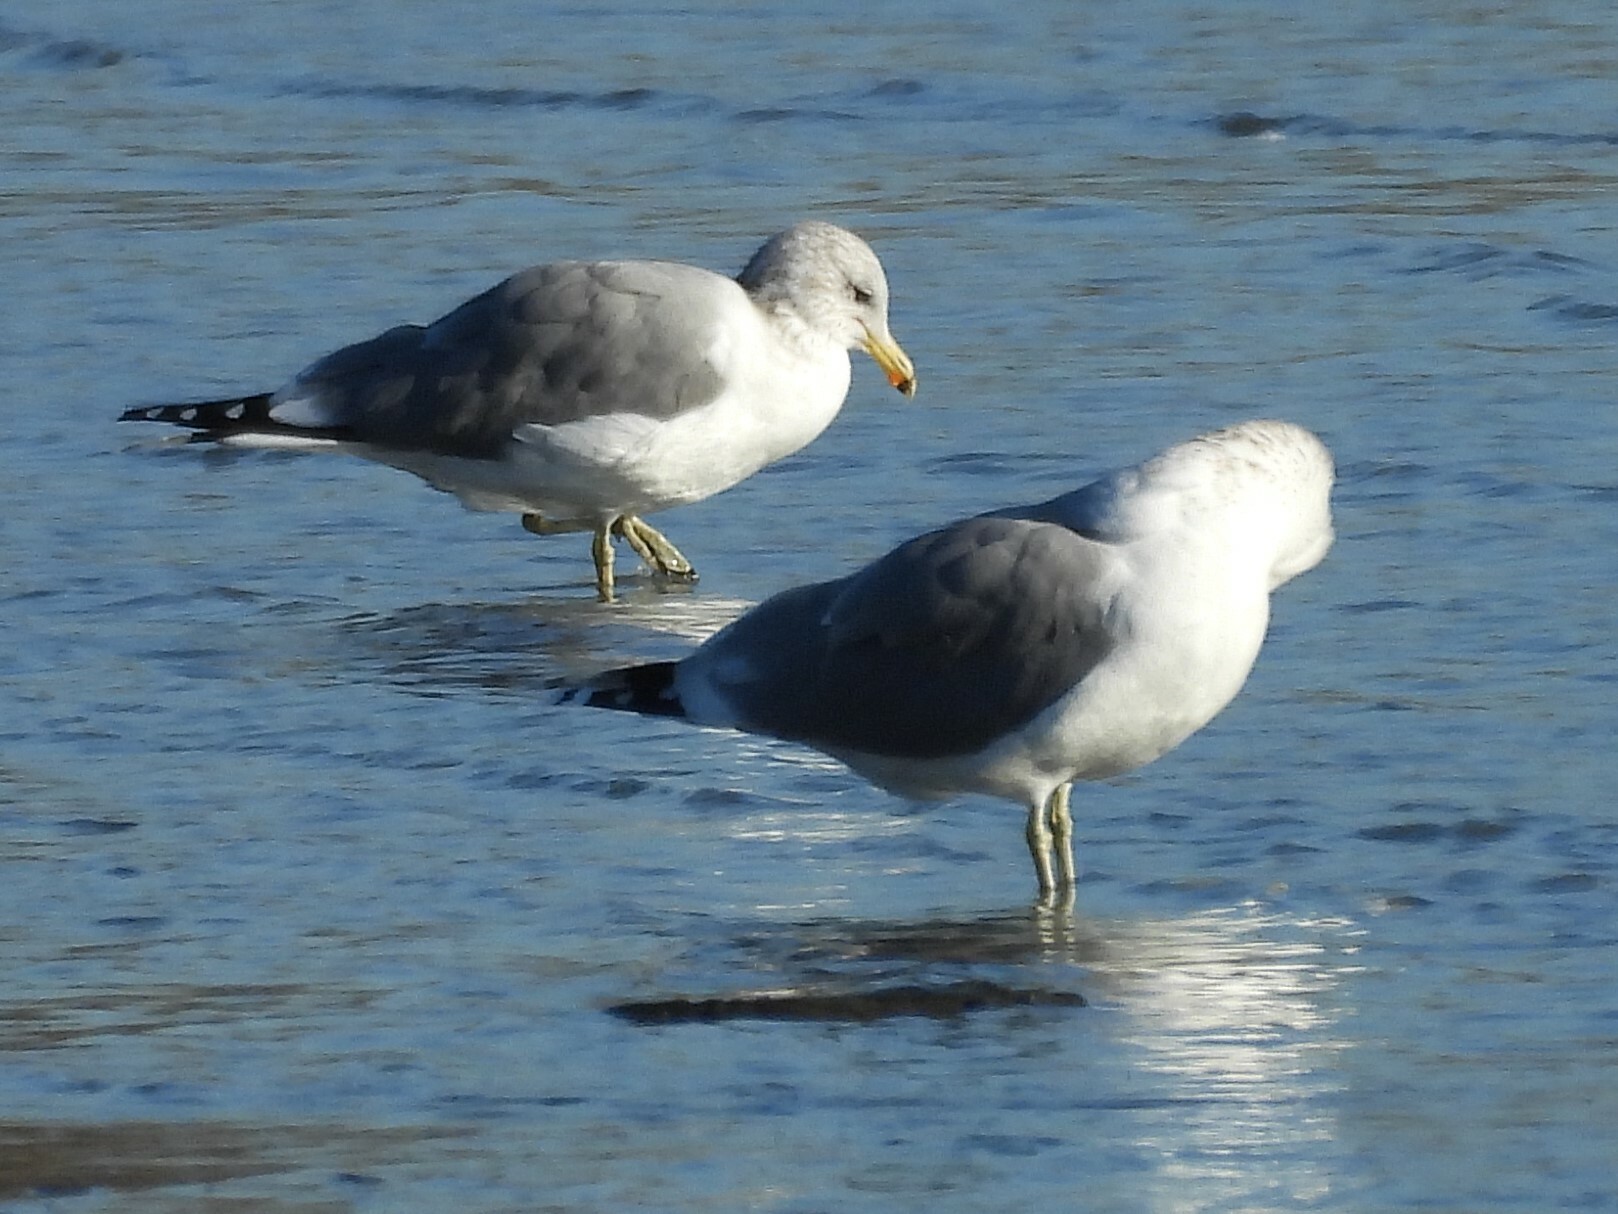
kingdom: Animalia
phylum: Chordata
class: Aves
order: Charadriiformes
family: Laridae
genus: Larus
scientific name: Larus californicus
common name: California gull
